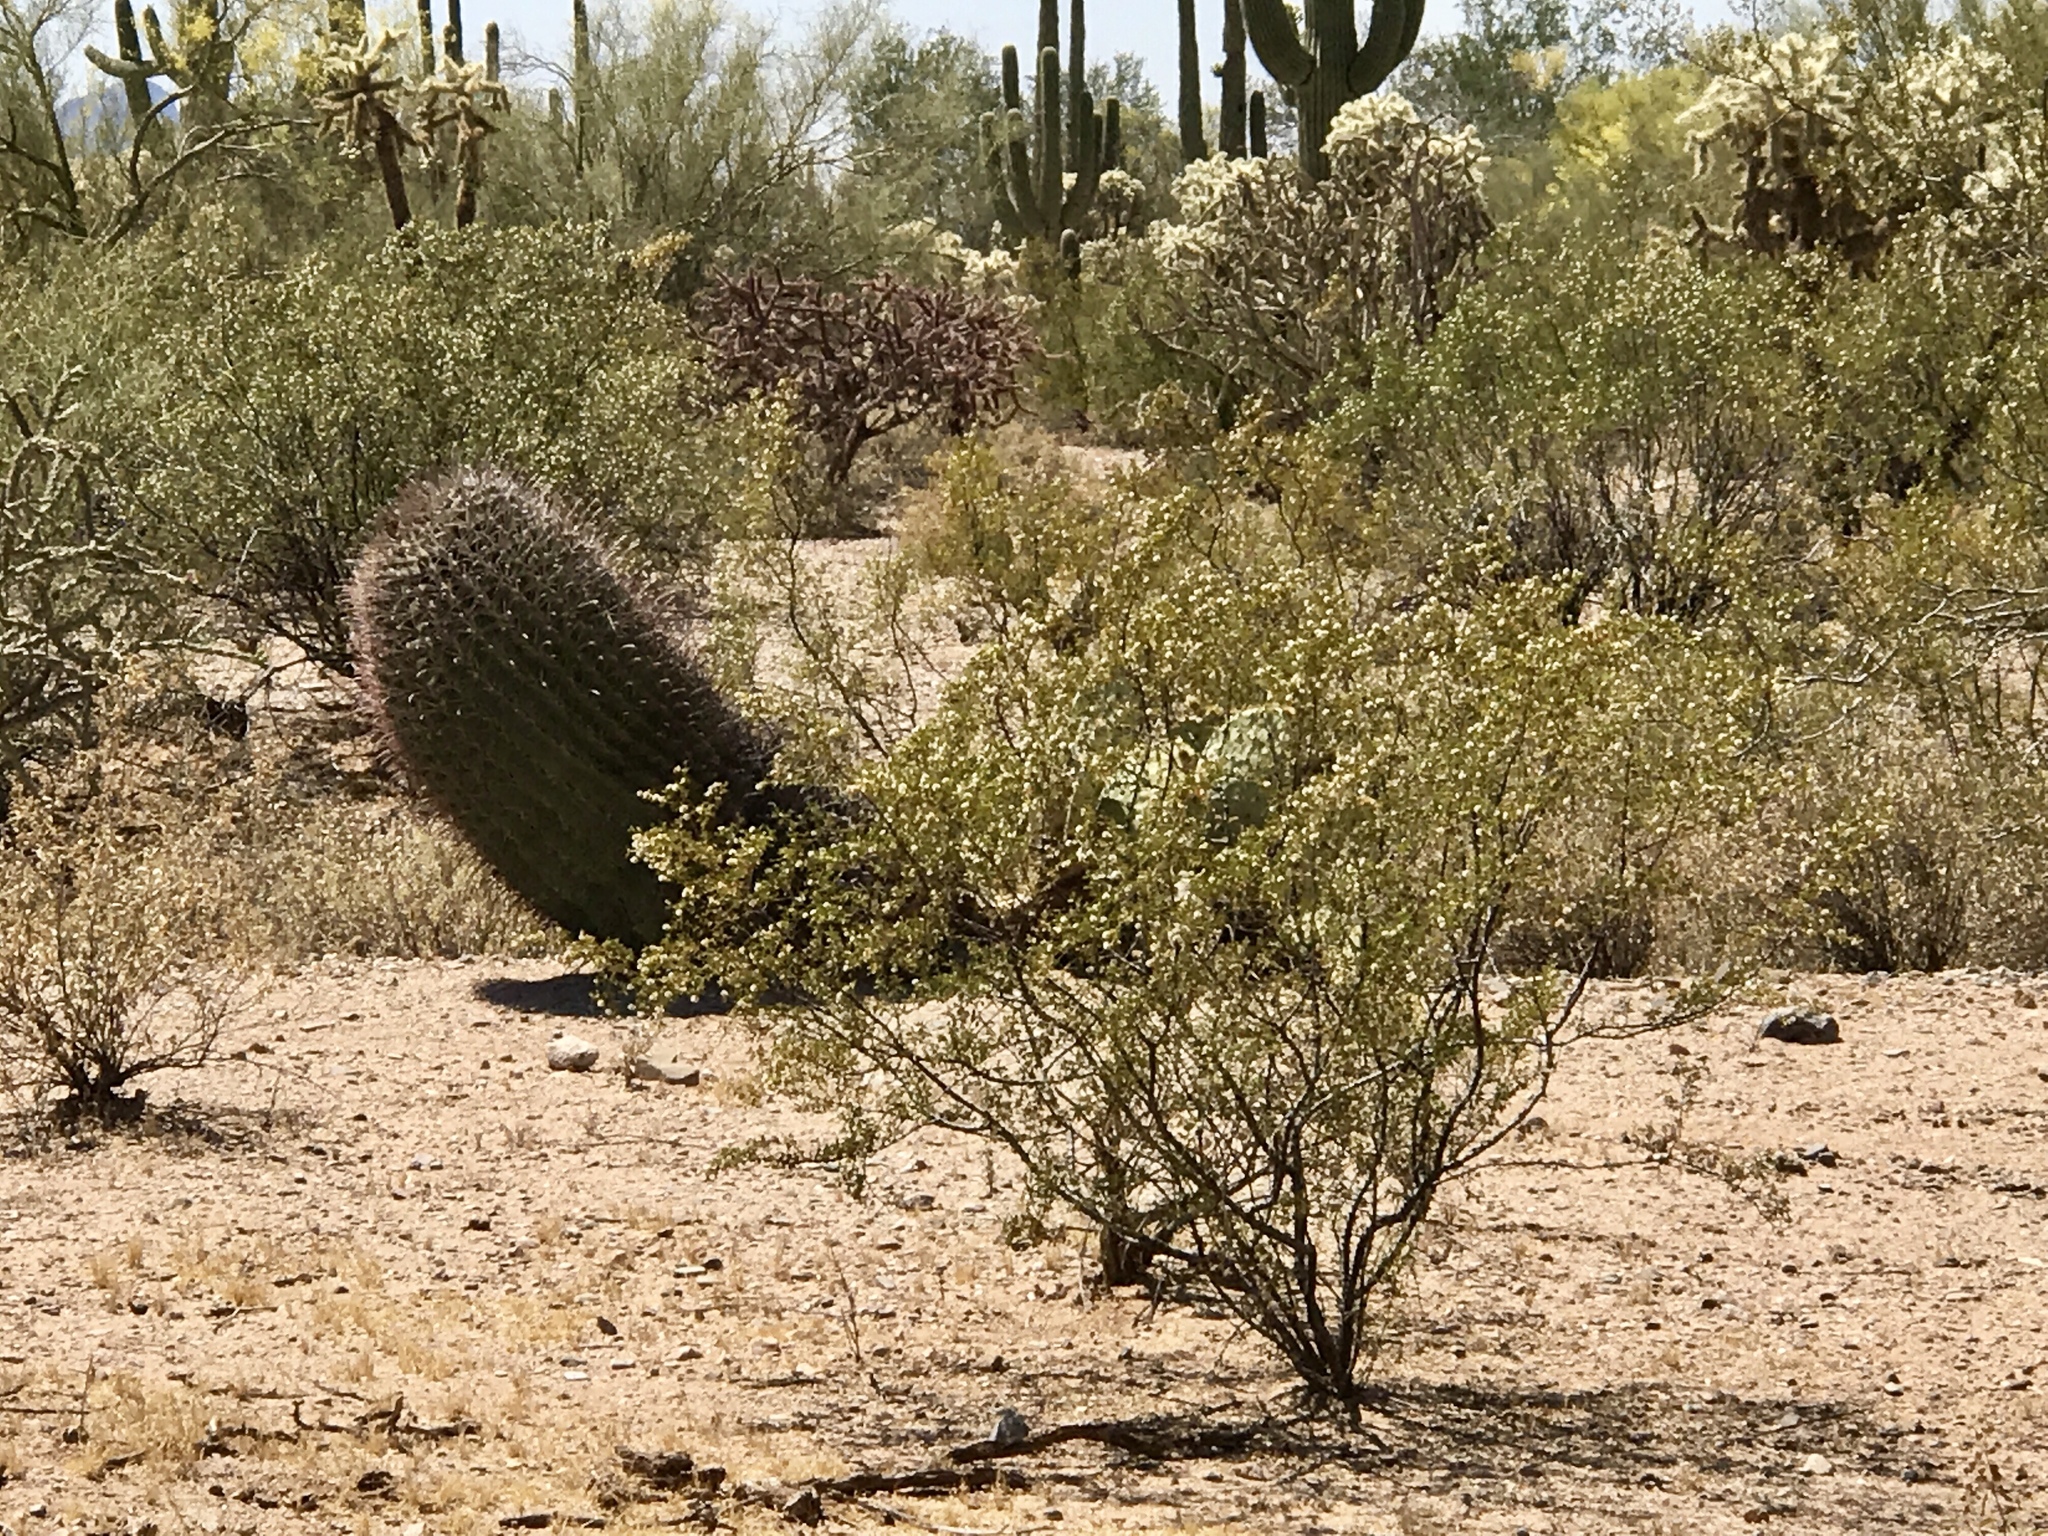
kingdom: Plantae
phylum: Tracheophyta
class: Magnoliopsida
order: Zygophyllales
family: Zygophyllaceae
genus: Larrea
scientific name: Larrea tridentata
